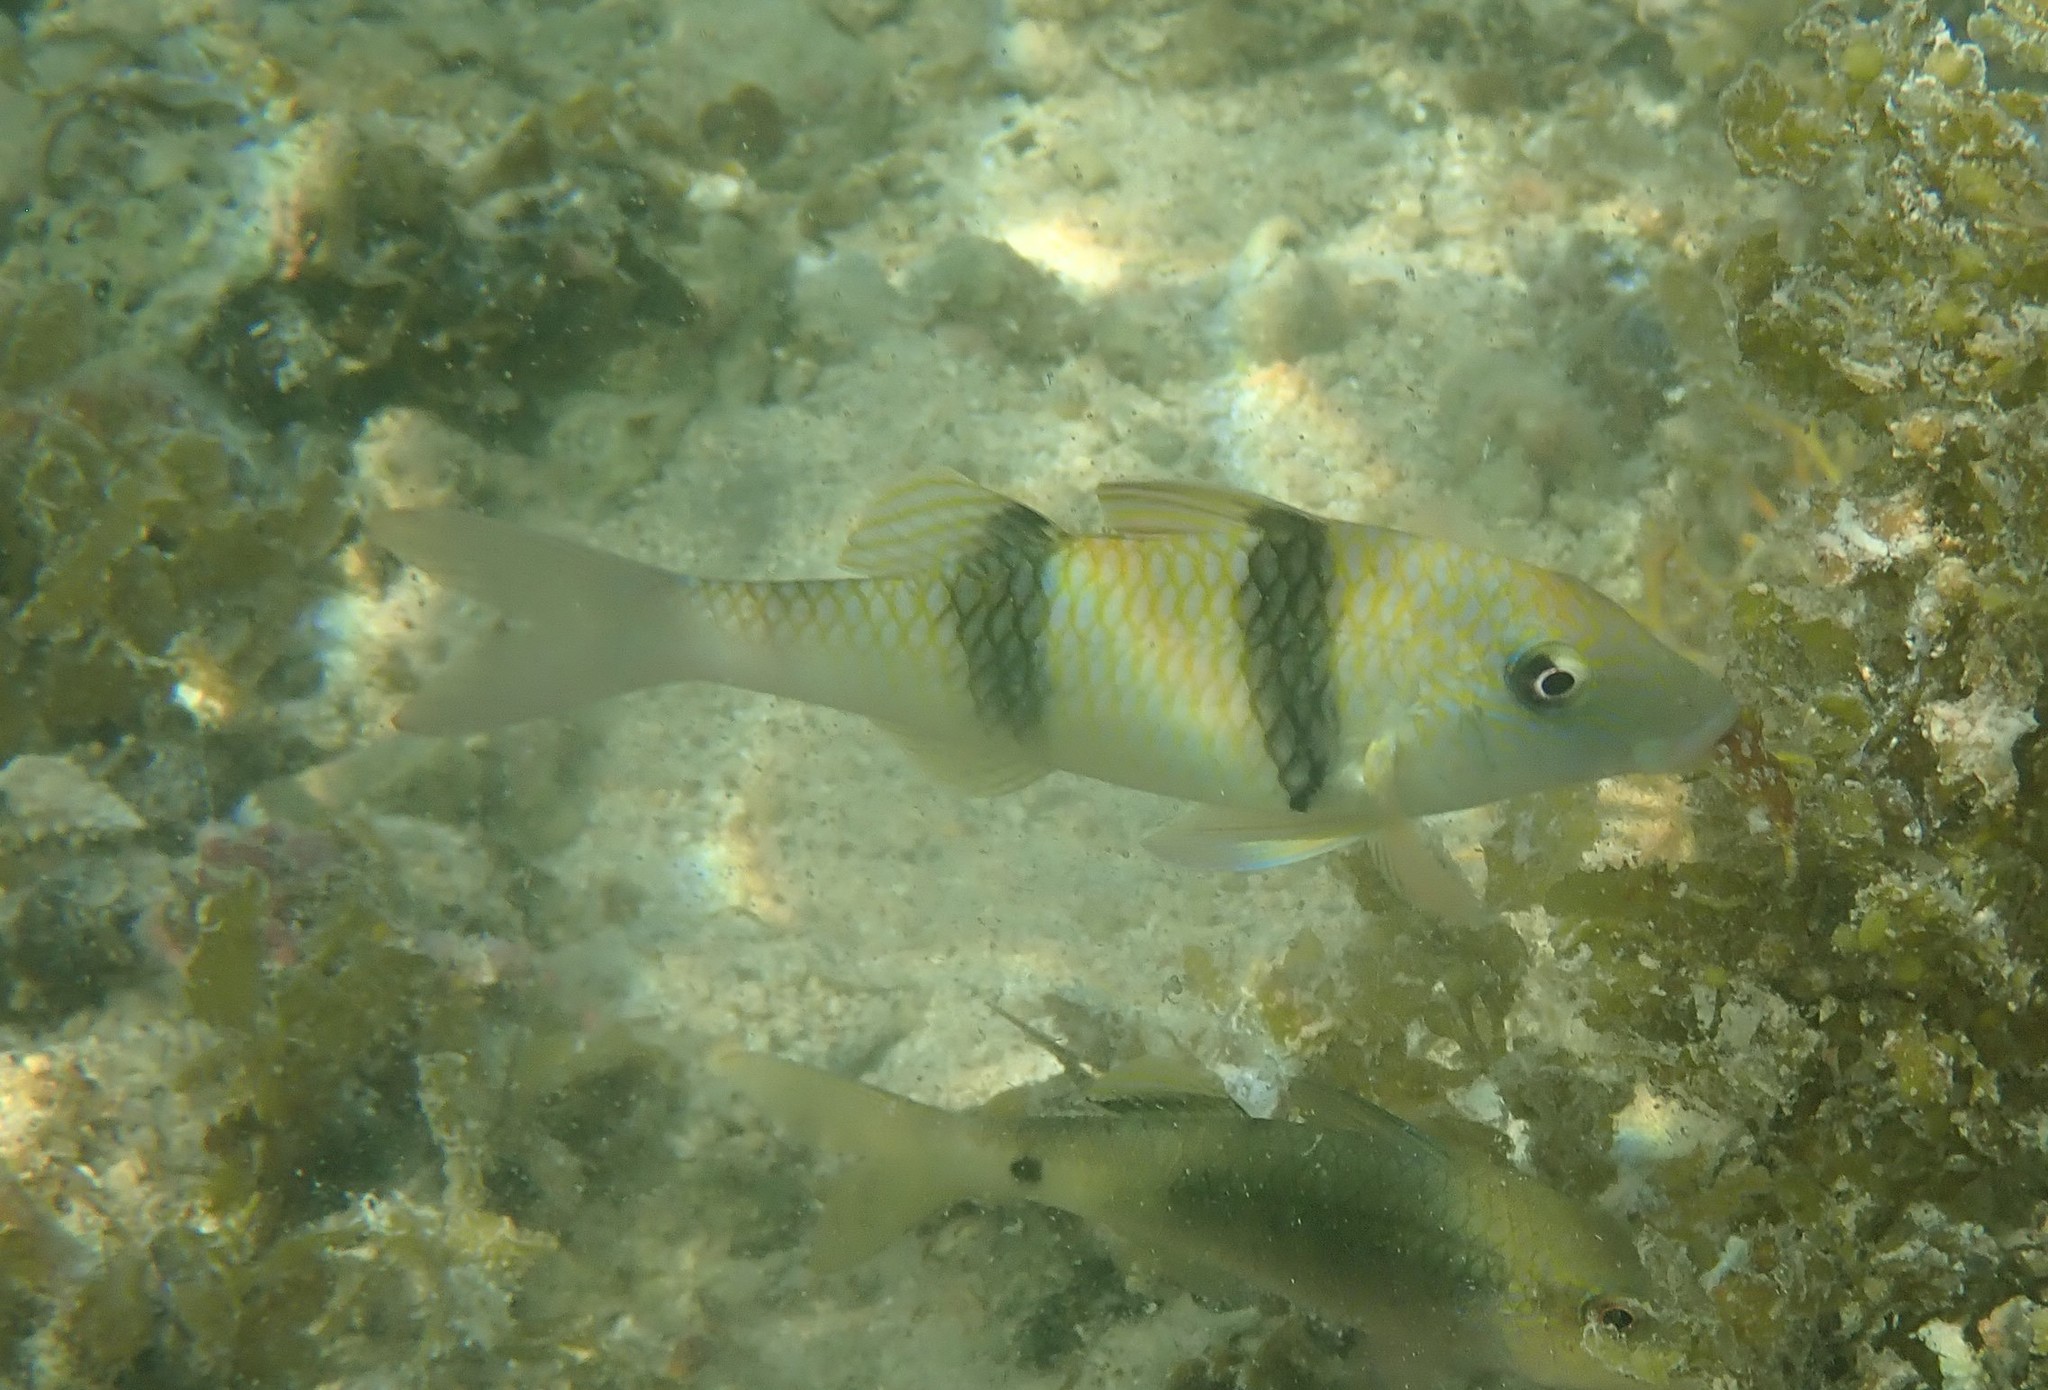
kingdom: Animalia
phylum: Chordata
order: Perciformes
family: Mullidae
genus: Parupeneus
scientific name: Parupeneus trifasciatus
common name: Doublebar goatfish
